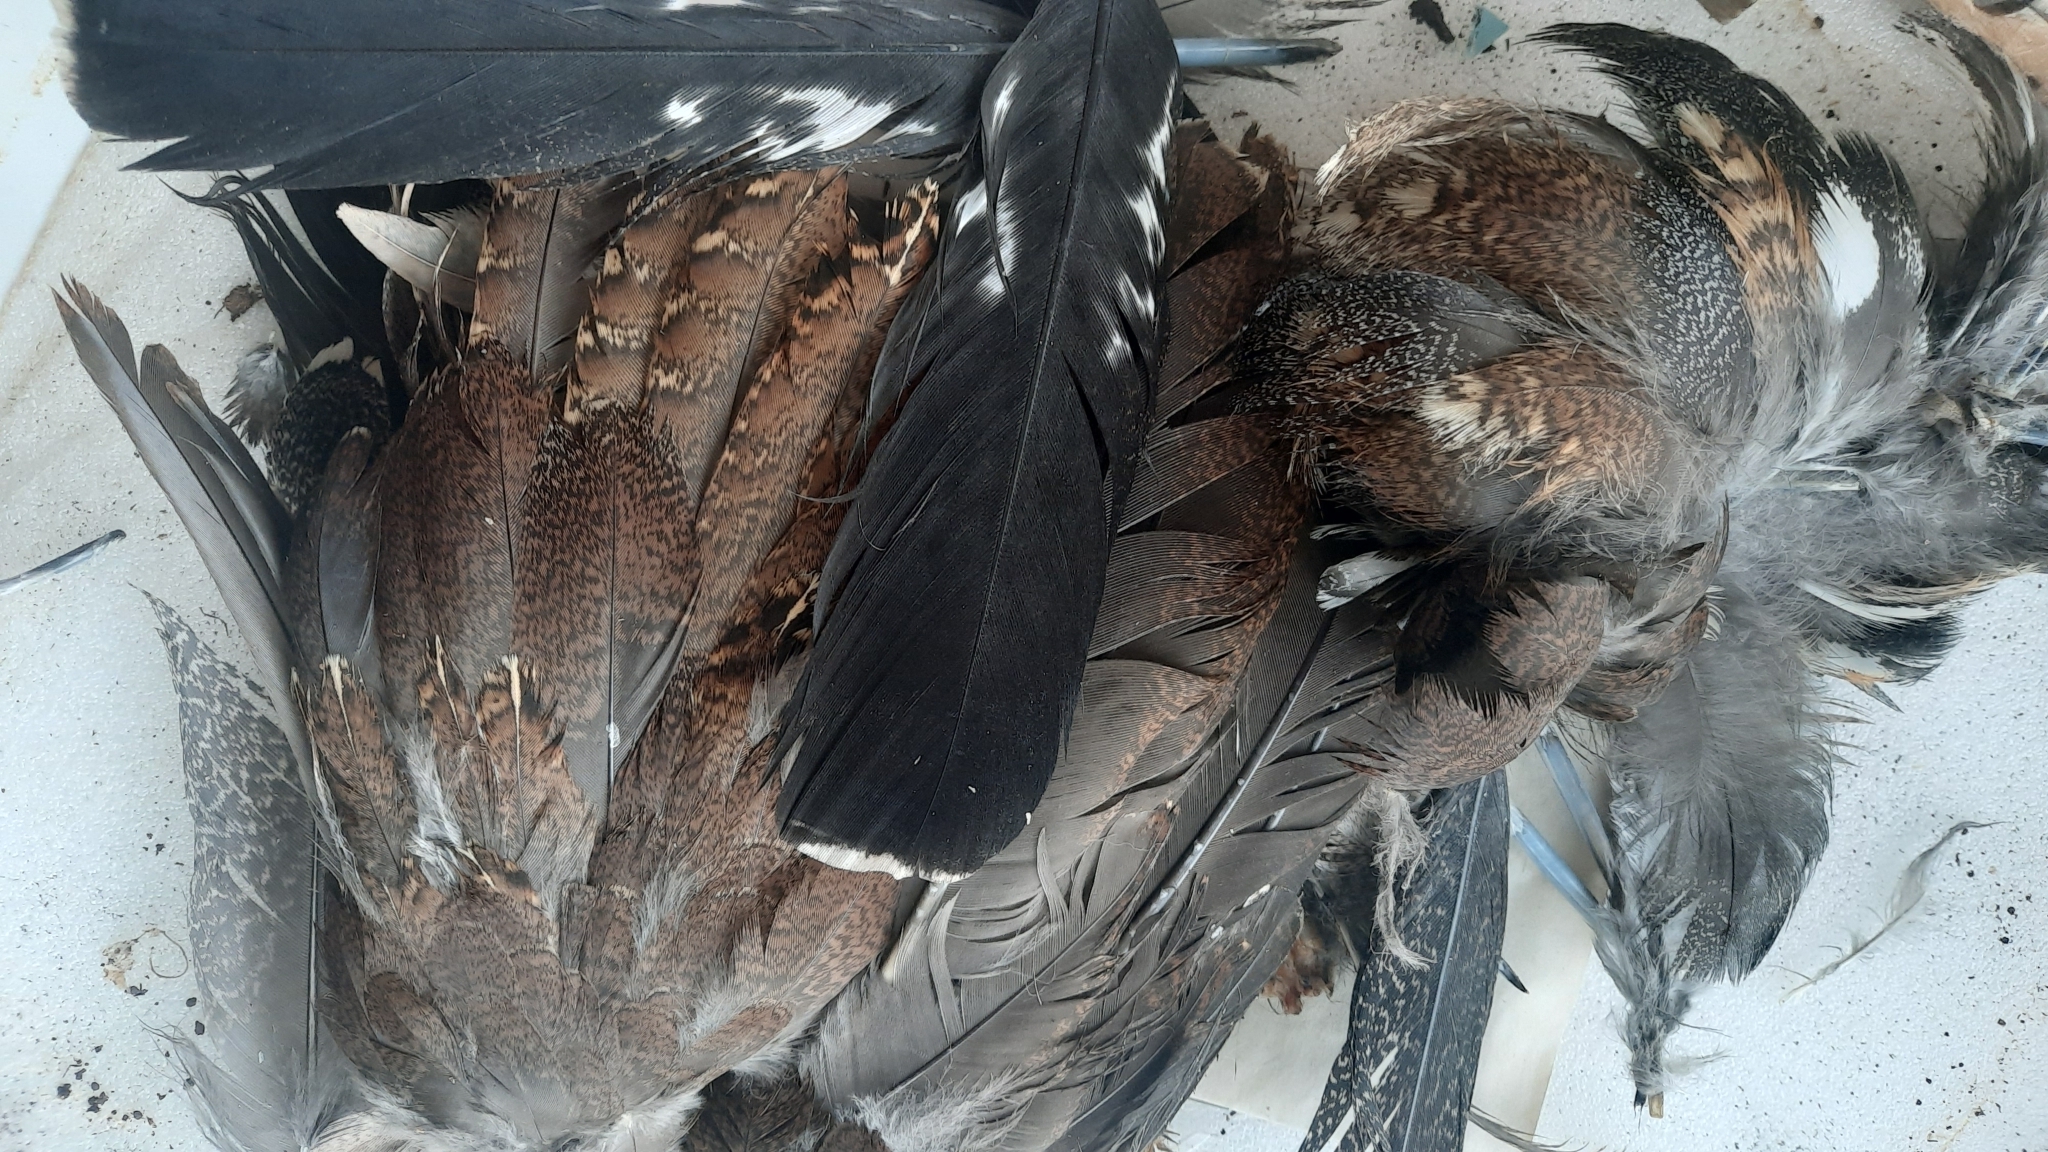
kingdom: Animalia
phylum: Chordata
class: Aves
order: Galliformes
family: Phasianidae
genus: Tetrao
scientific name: Tetrao urogallus
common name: Western capercaillie
